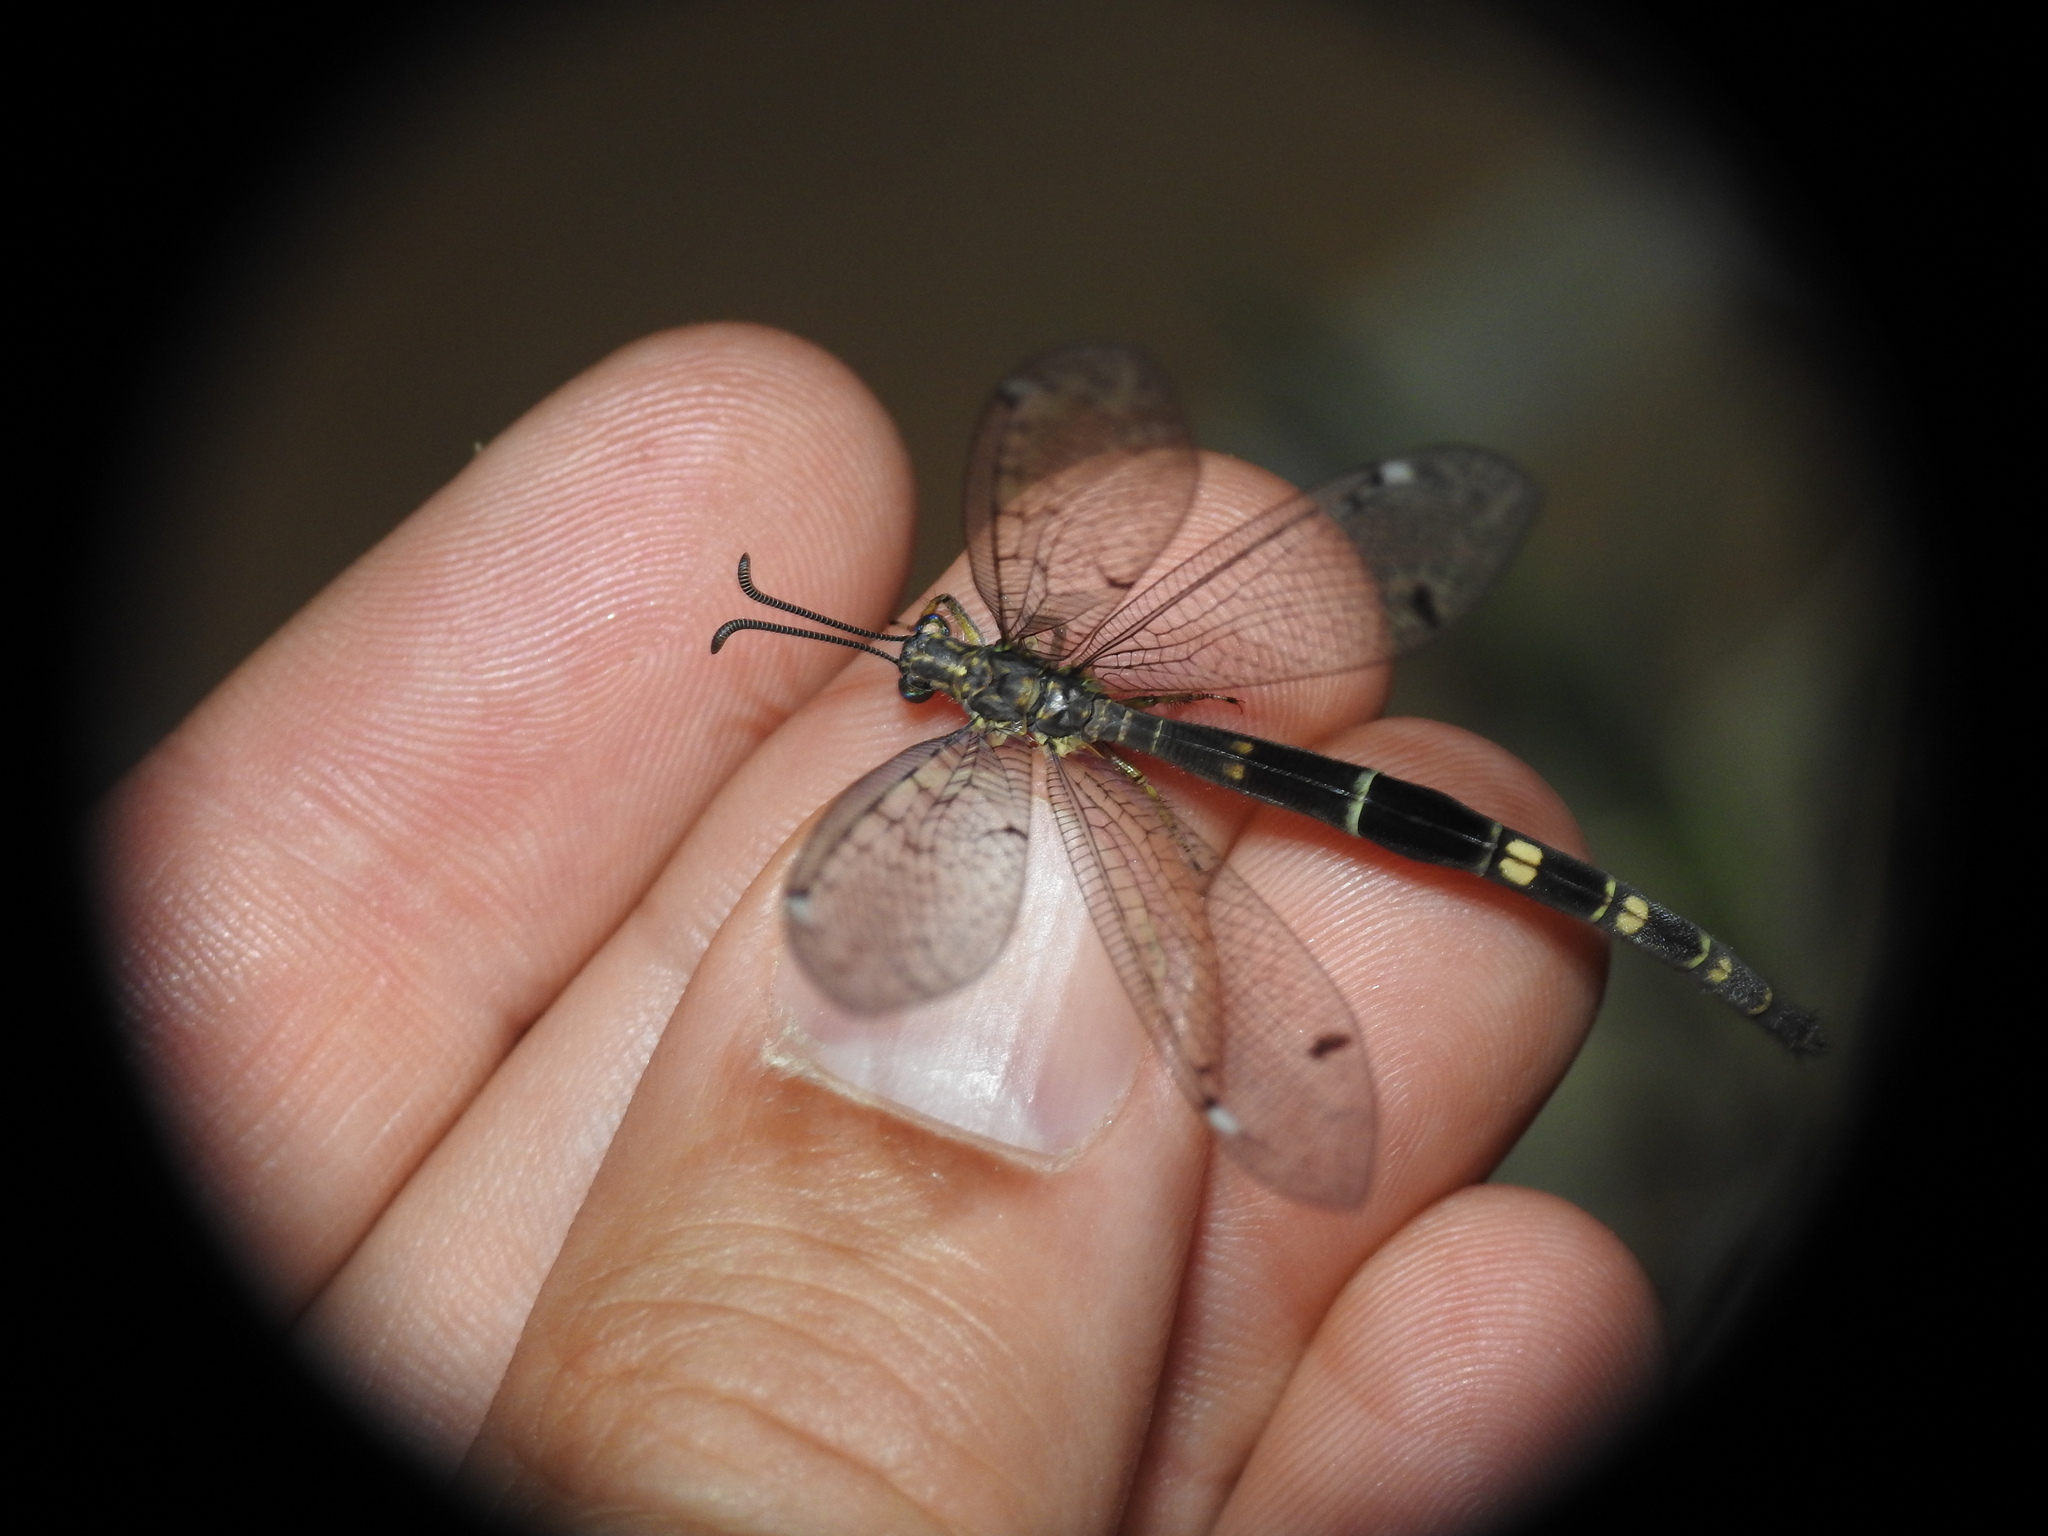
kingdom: Animalia
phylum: Arthropoda
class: Insecta
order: Neuroptera
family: Myrmeleontidae
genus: Distoleon
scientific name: Distoleon tetragrammicus
